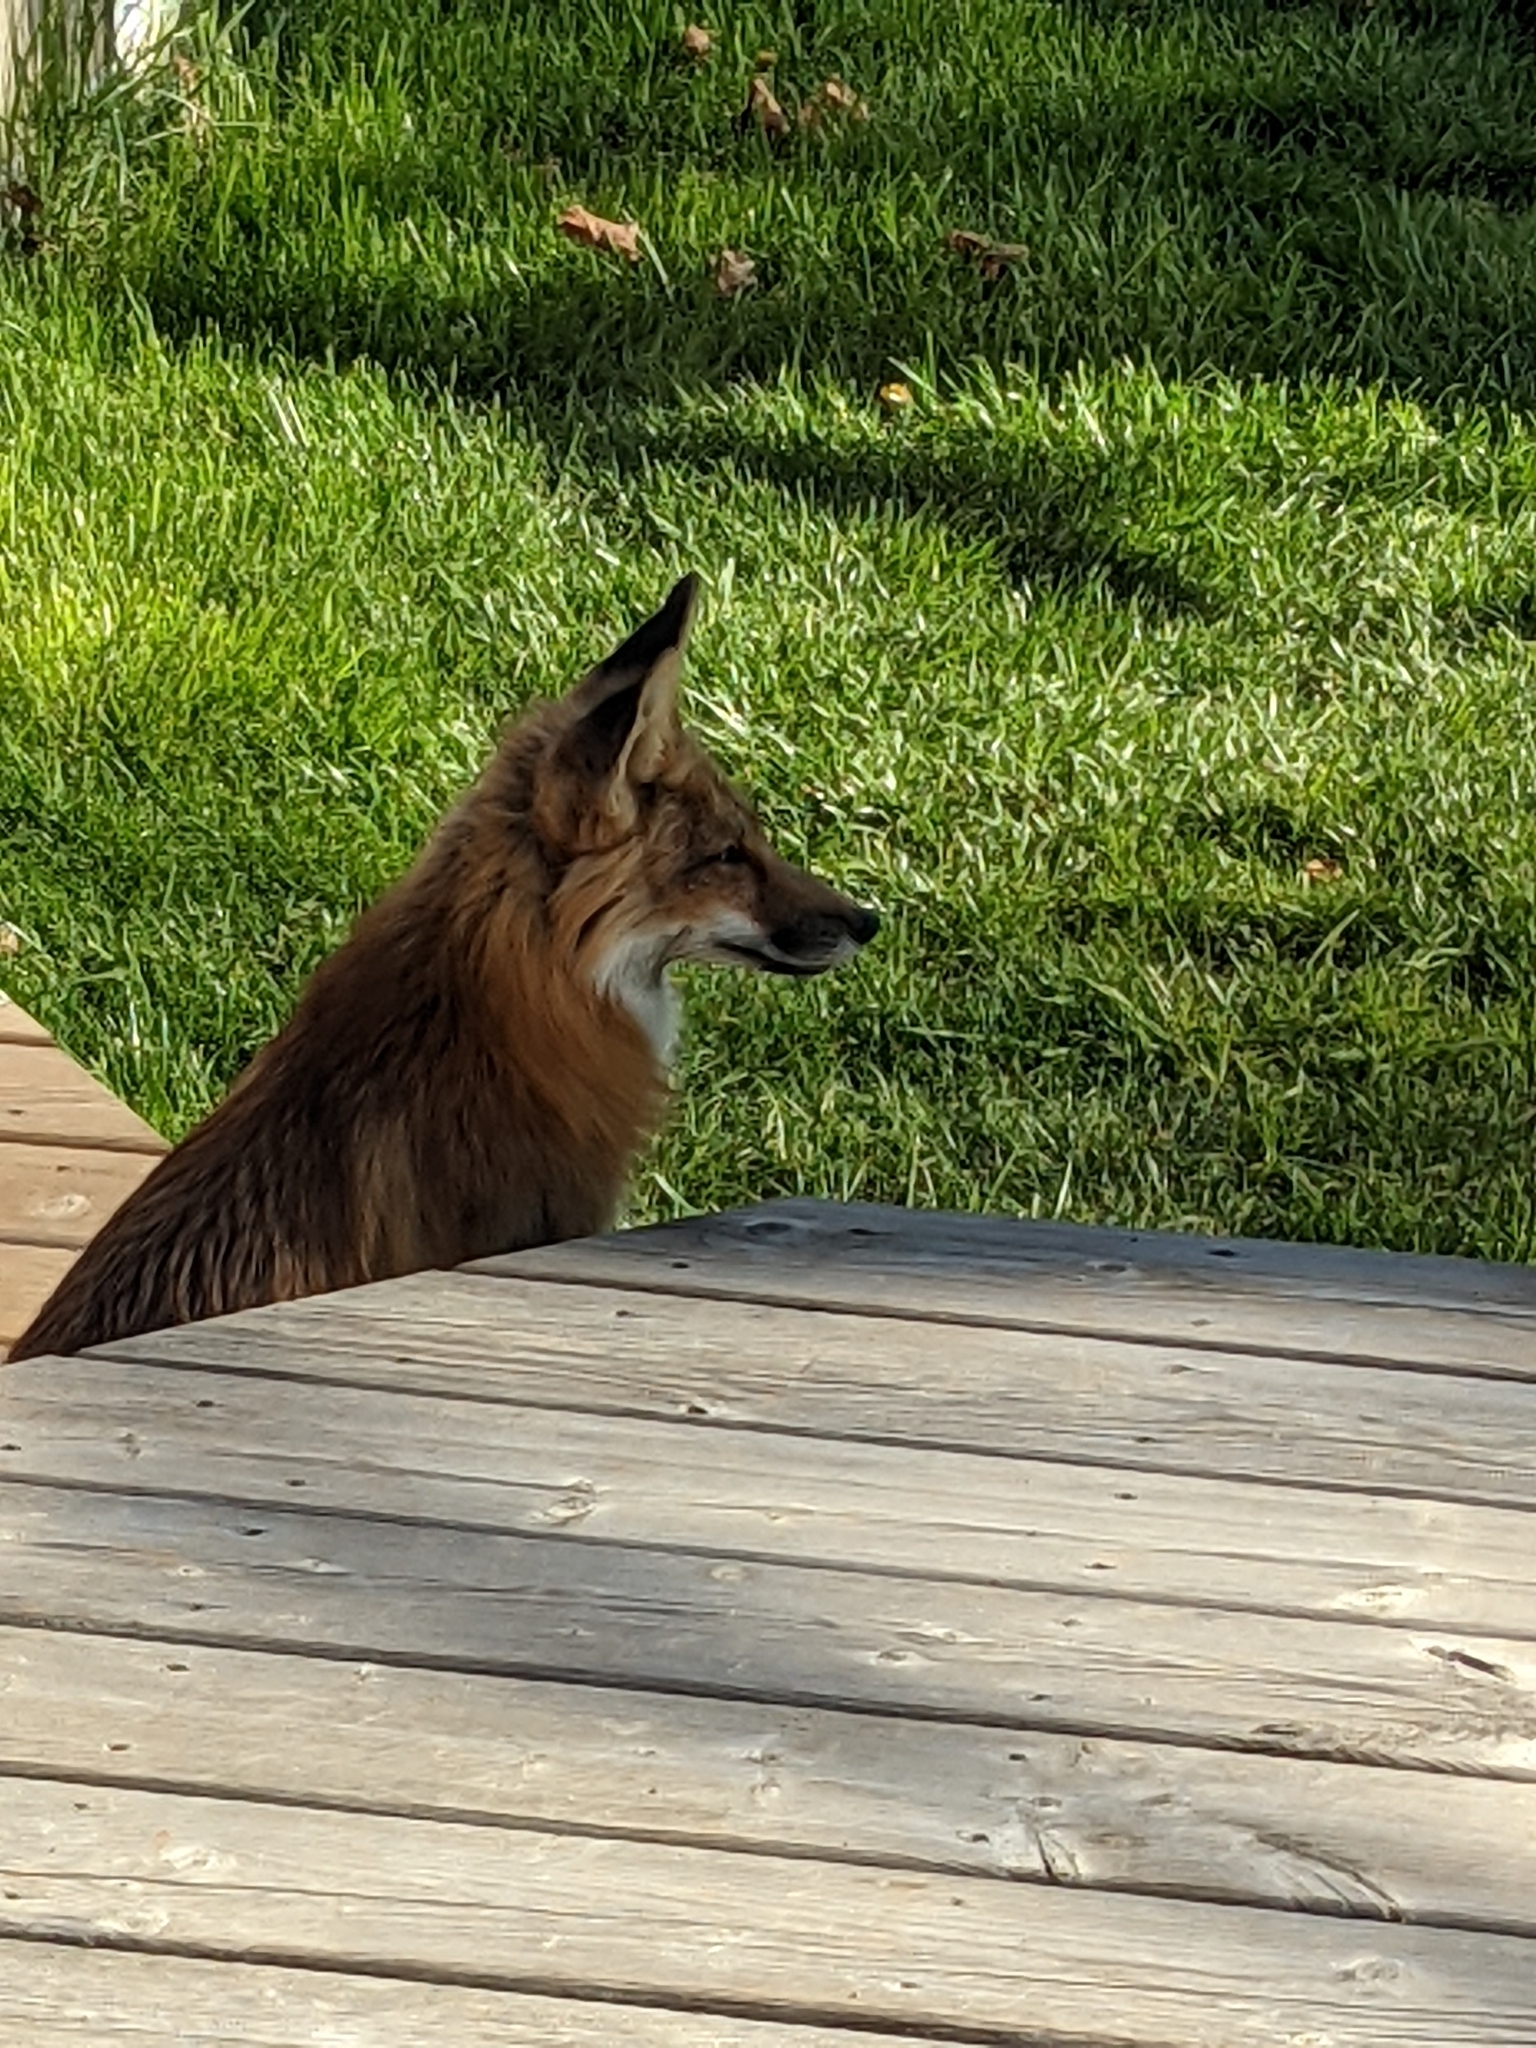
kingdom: Animalia
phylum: Chordata
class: Mammalia
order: Carnivora
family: Canidae
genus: Vulpes
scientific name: Vulpes vulpes
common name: Red fox
